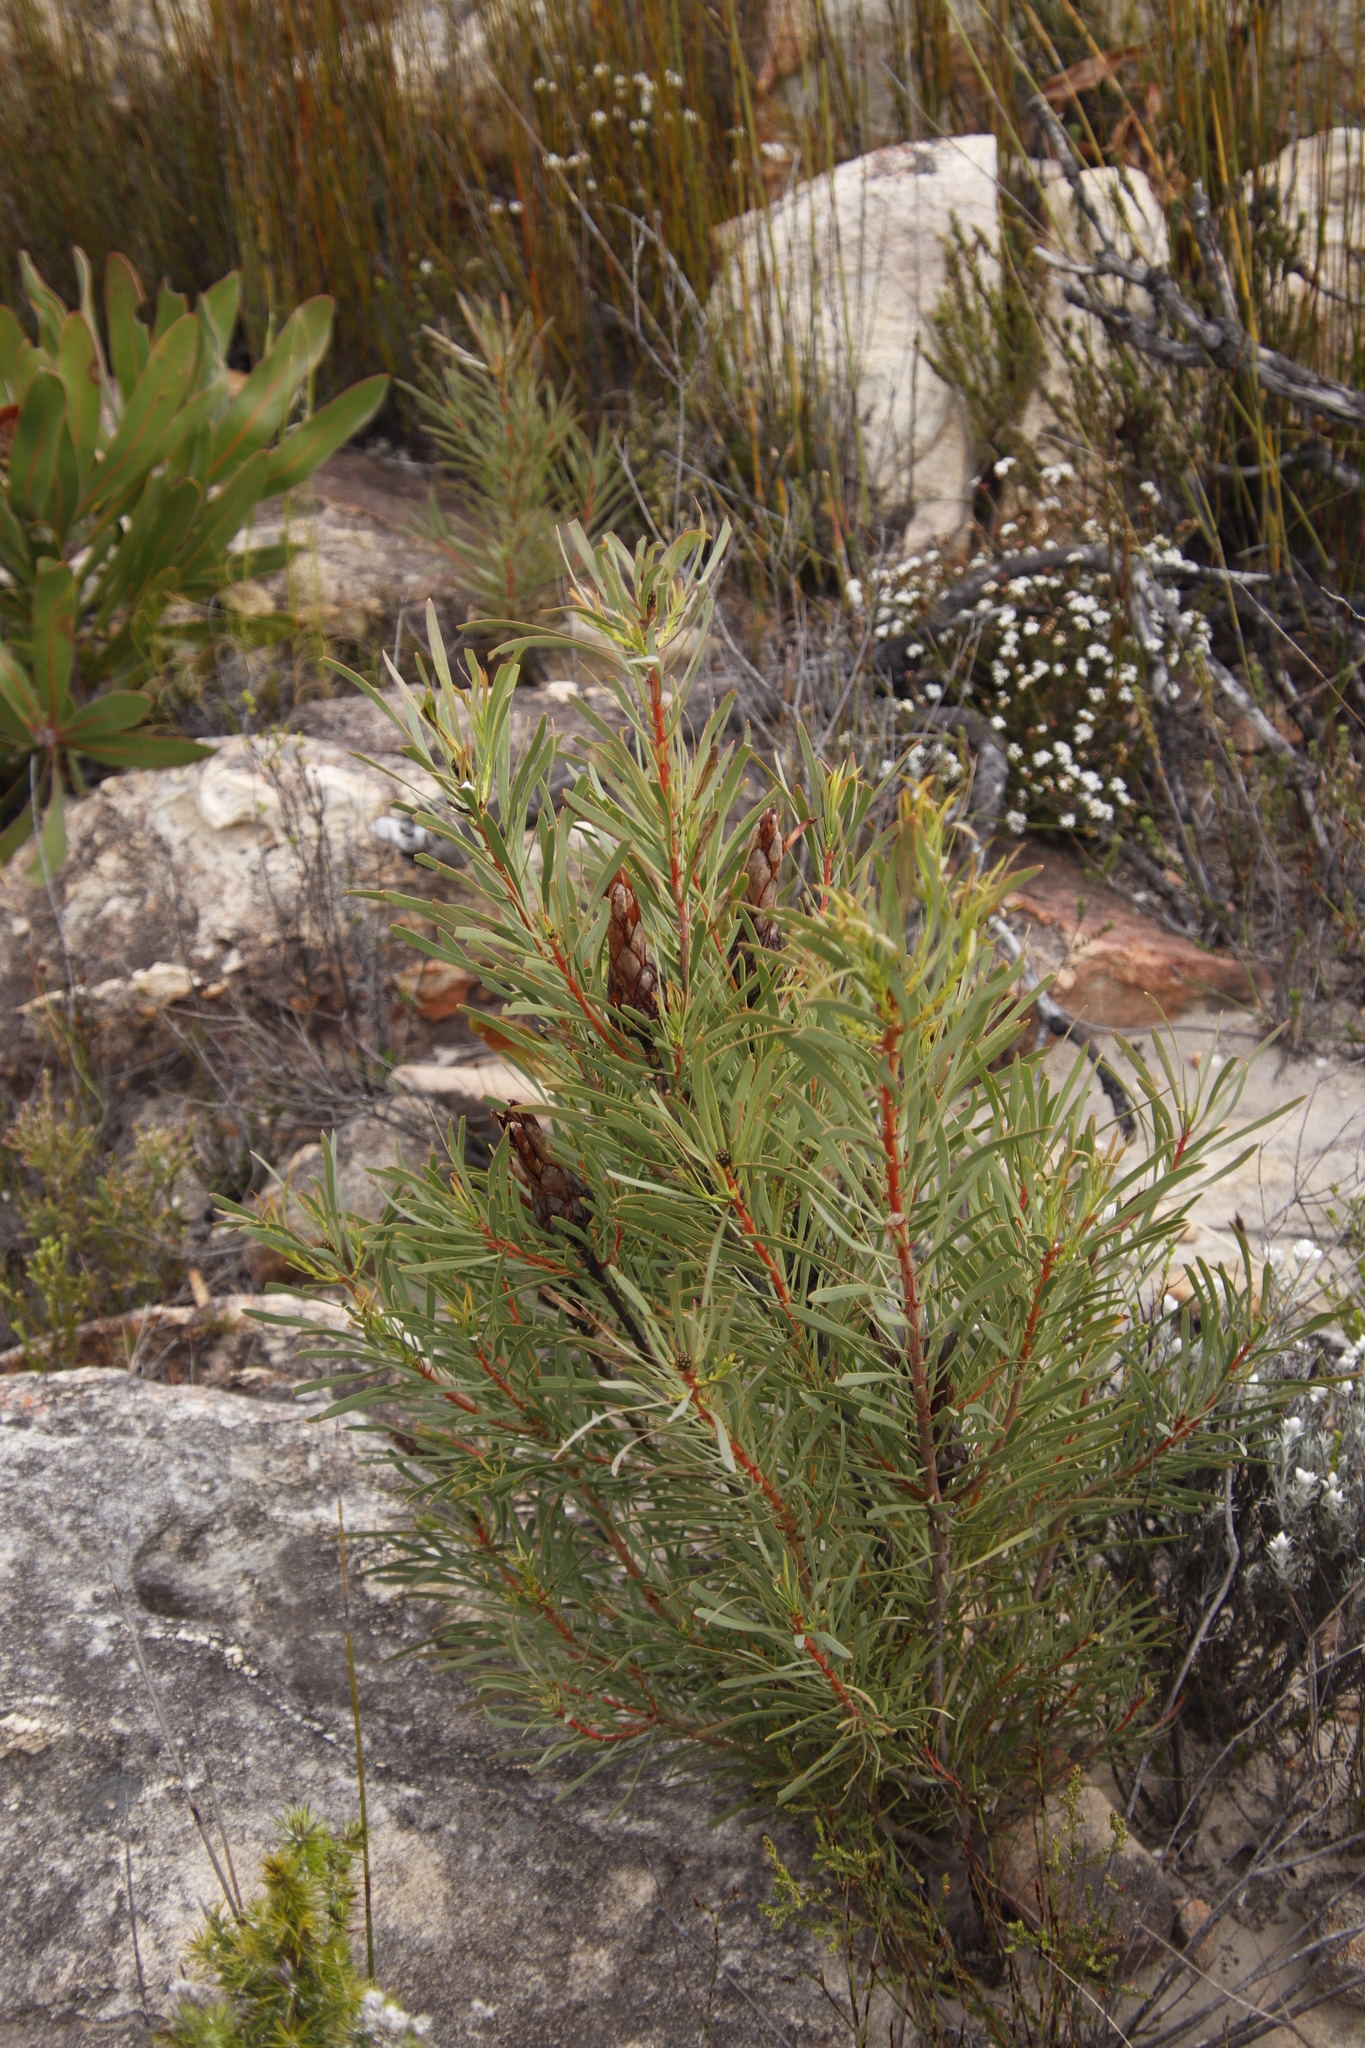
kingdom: Plantae
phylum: Tracheophyta
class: Magnoliopsida
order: Proteales
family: Proteaceae
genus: Protea
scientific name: Protea repens
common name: Sugarbush
